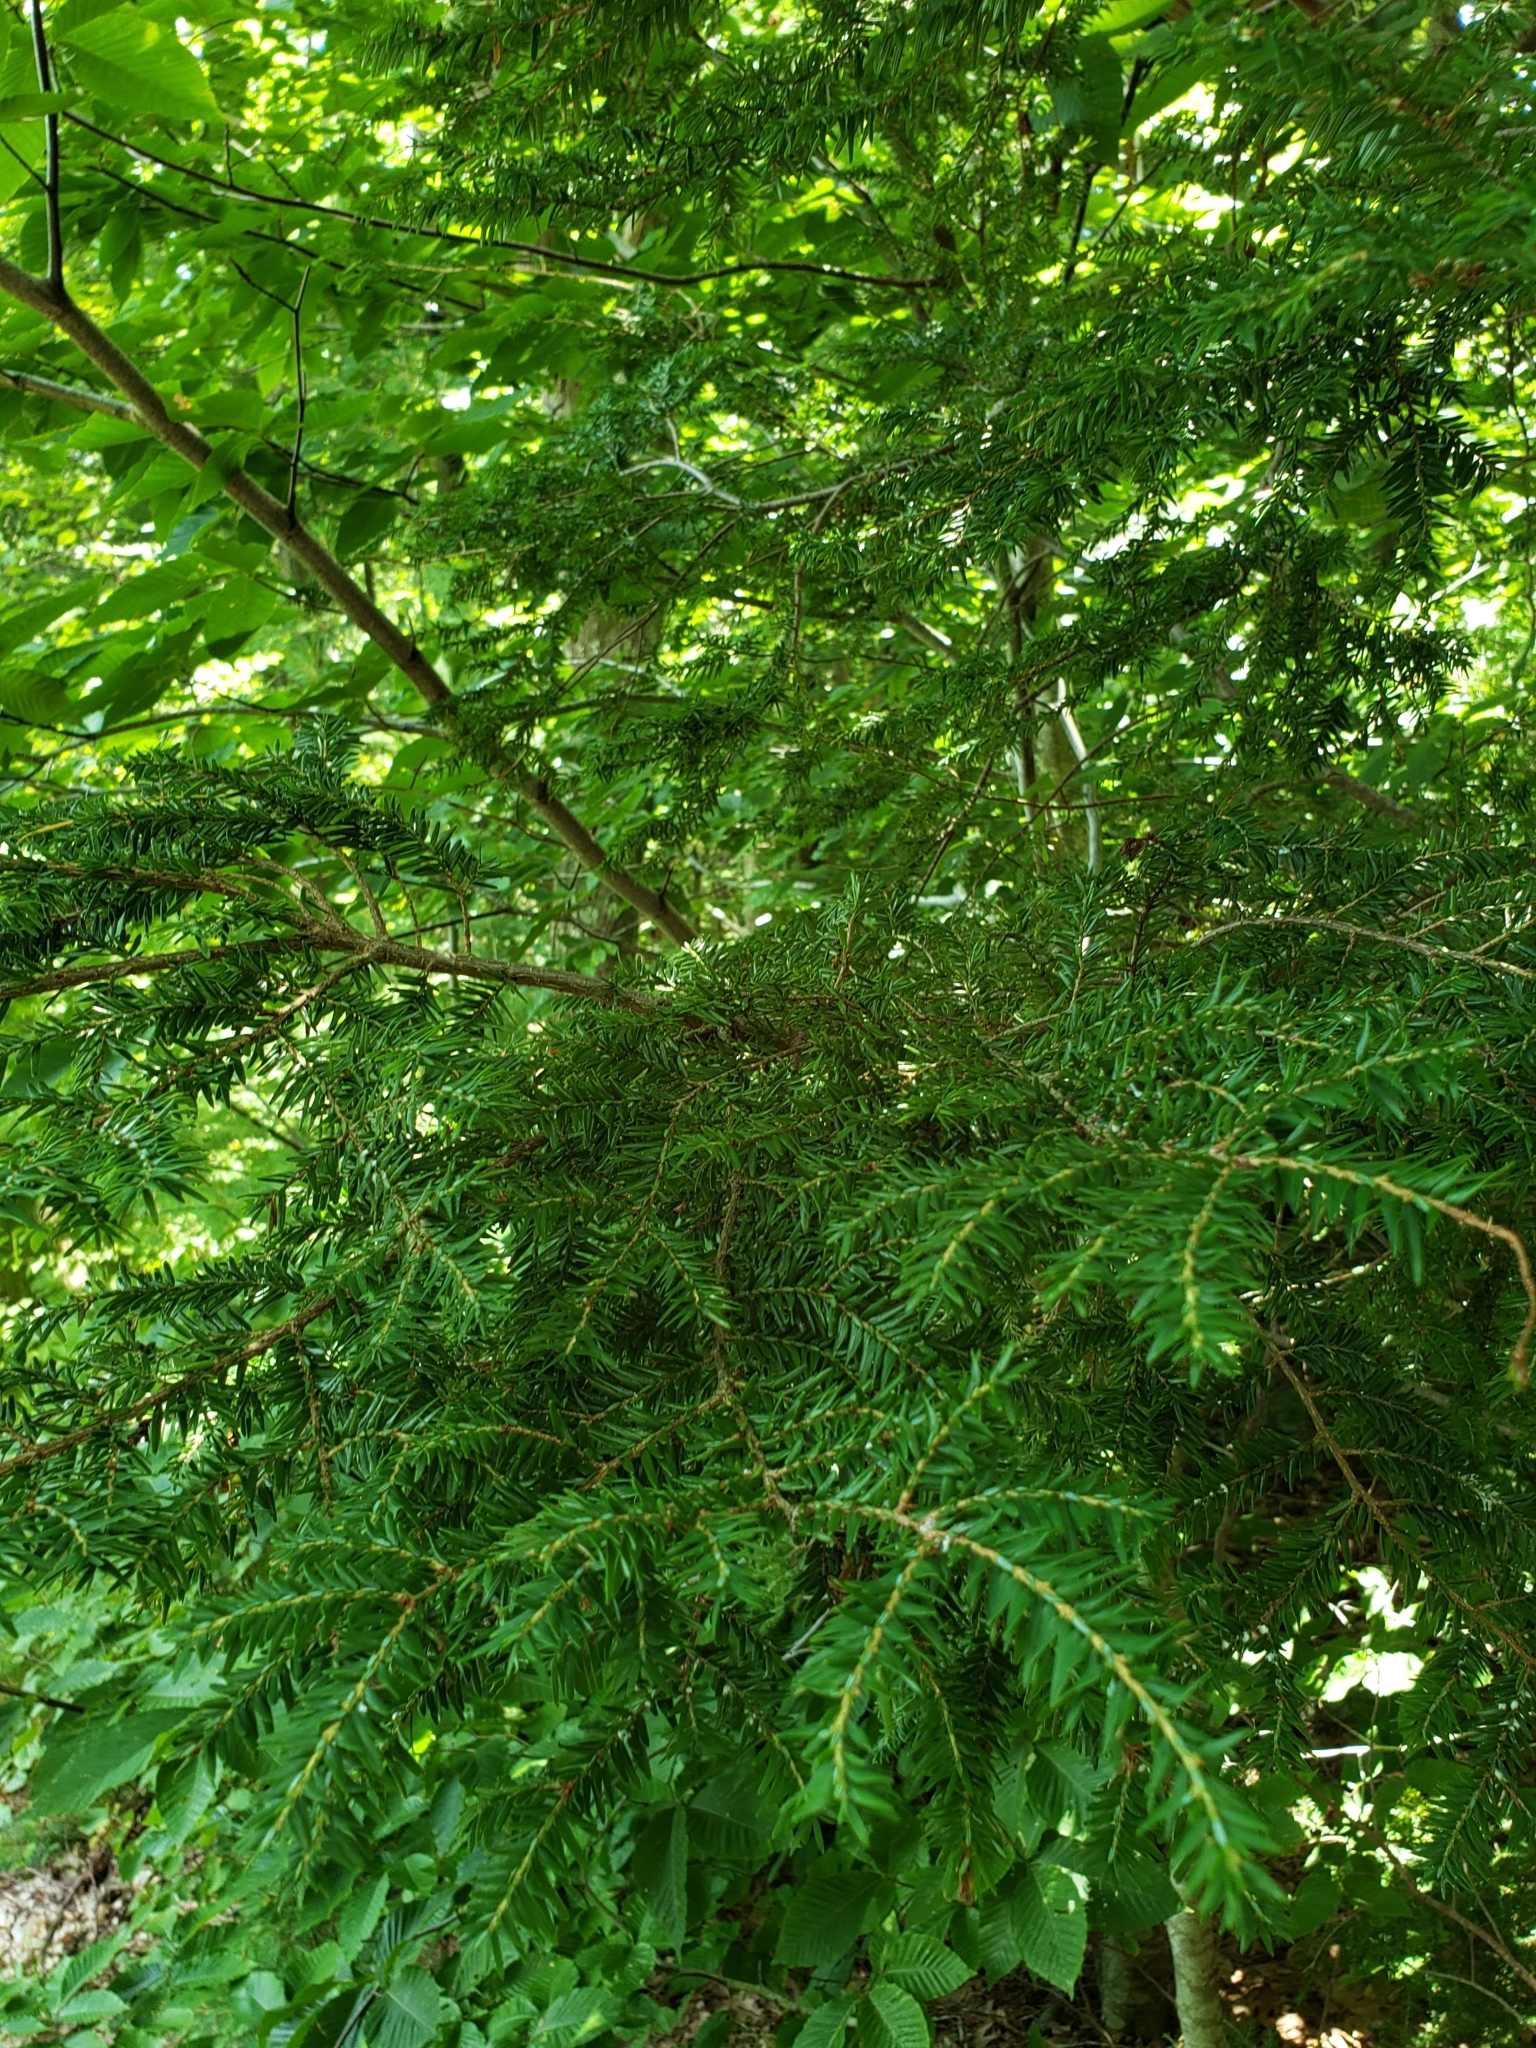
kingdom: Plantae
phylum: Tracheophyta
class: Pinopsida
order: Pinales
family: Pinaceae
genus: Tsuga
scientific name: Tsuga canadensis
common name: Eastern hemlock
